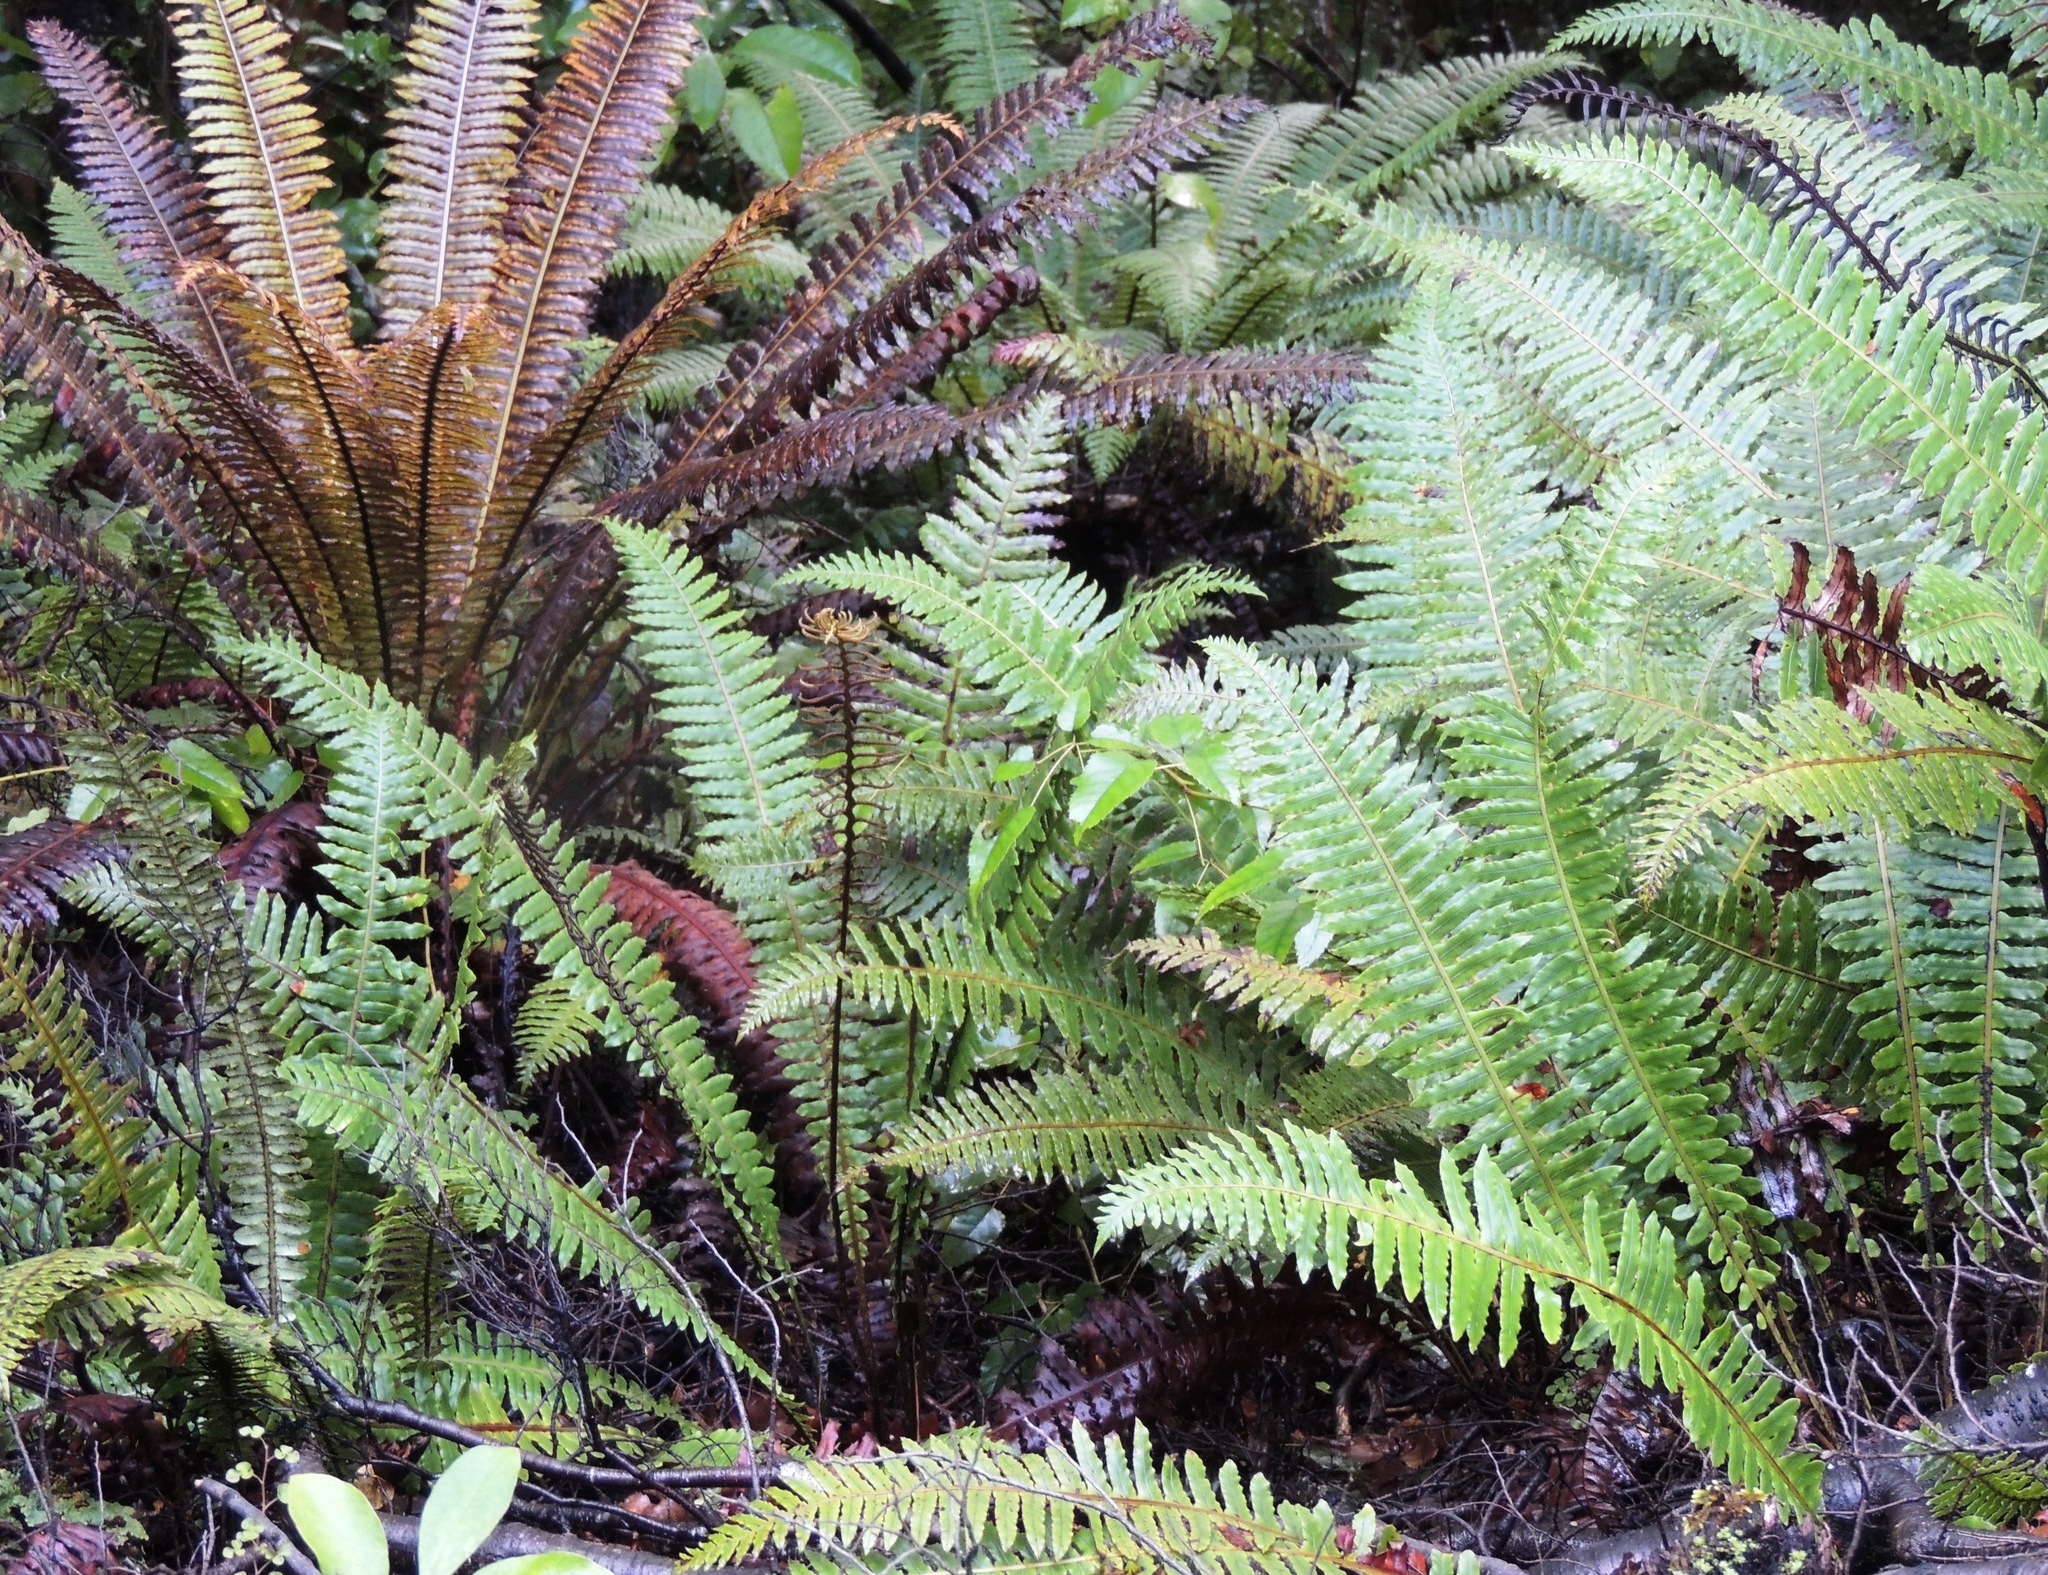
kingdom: Plantae
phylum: Tracheophyta
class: Polypodiopsida
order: Polypodiales
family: Blechnaceae
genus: Lomaria
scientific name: Lomaria discolor
